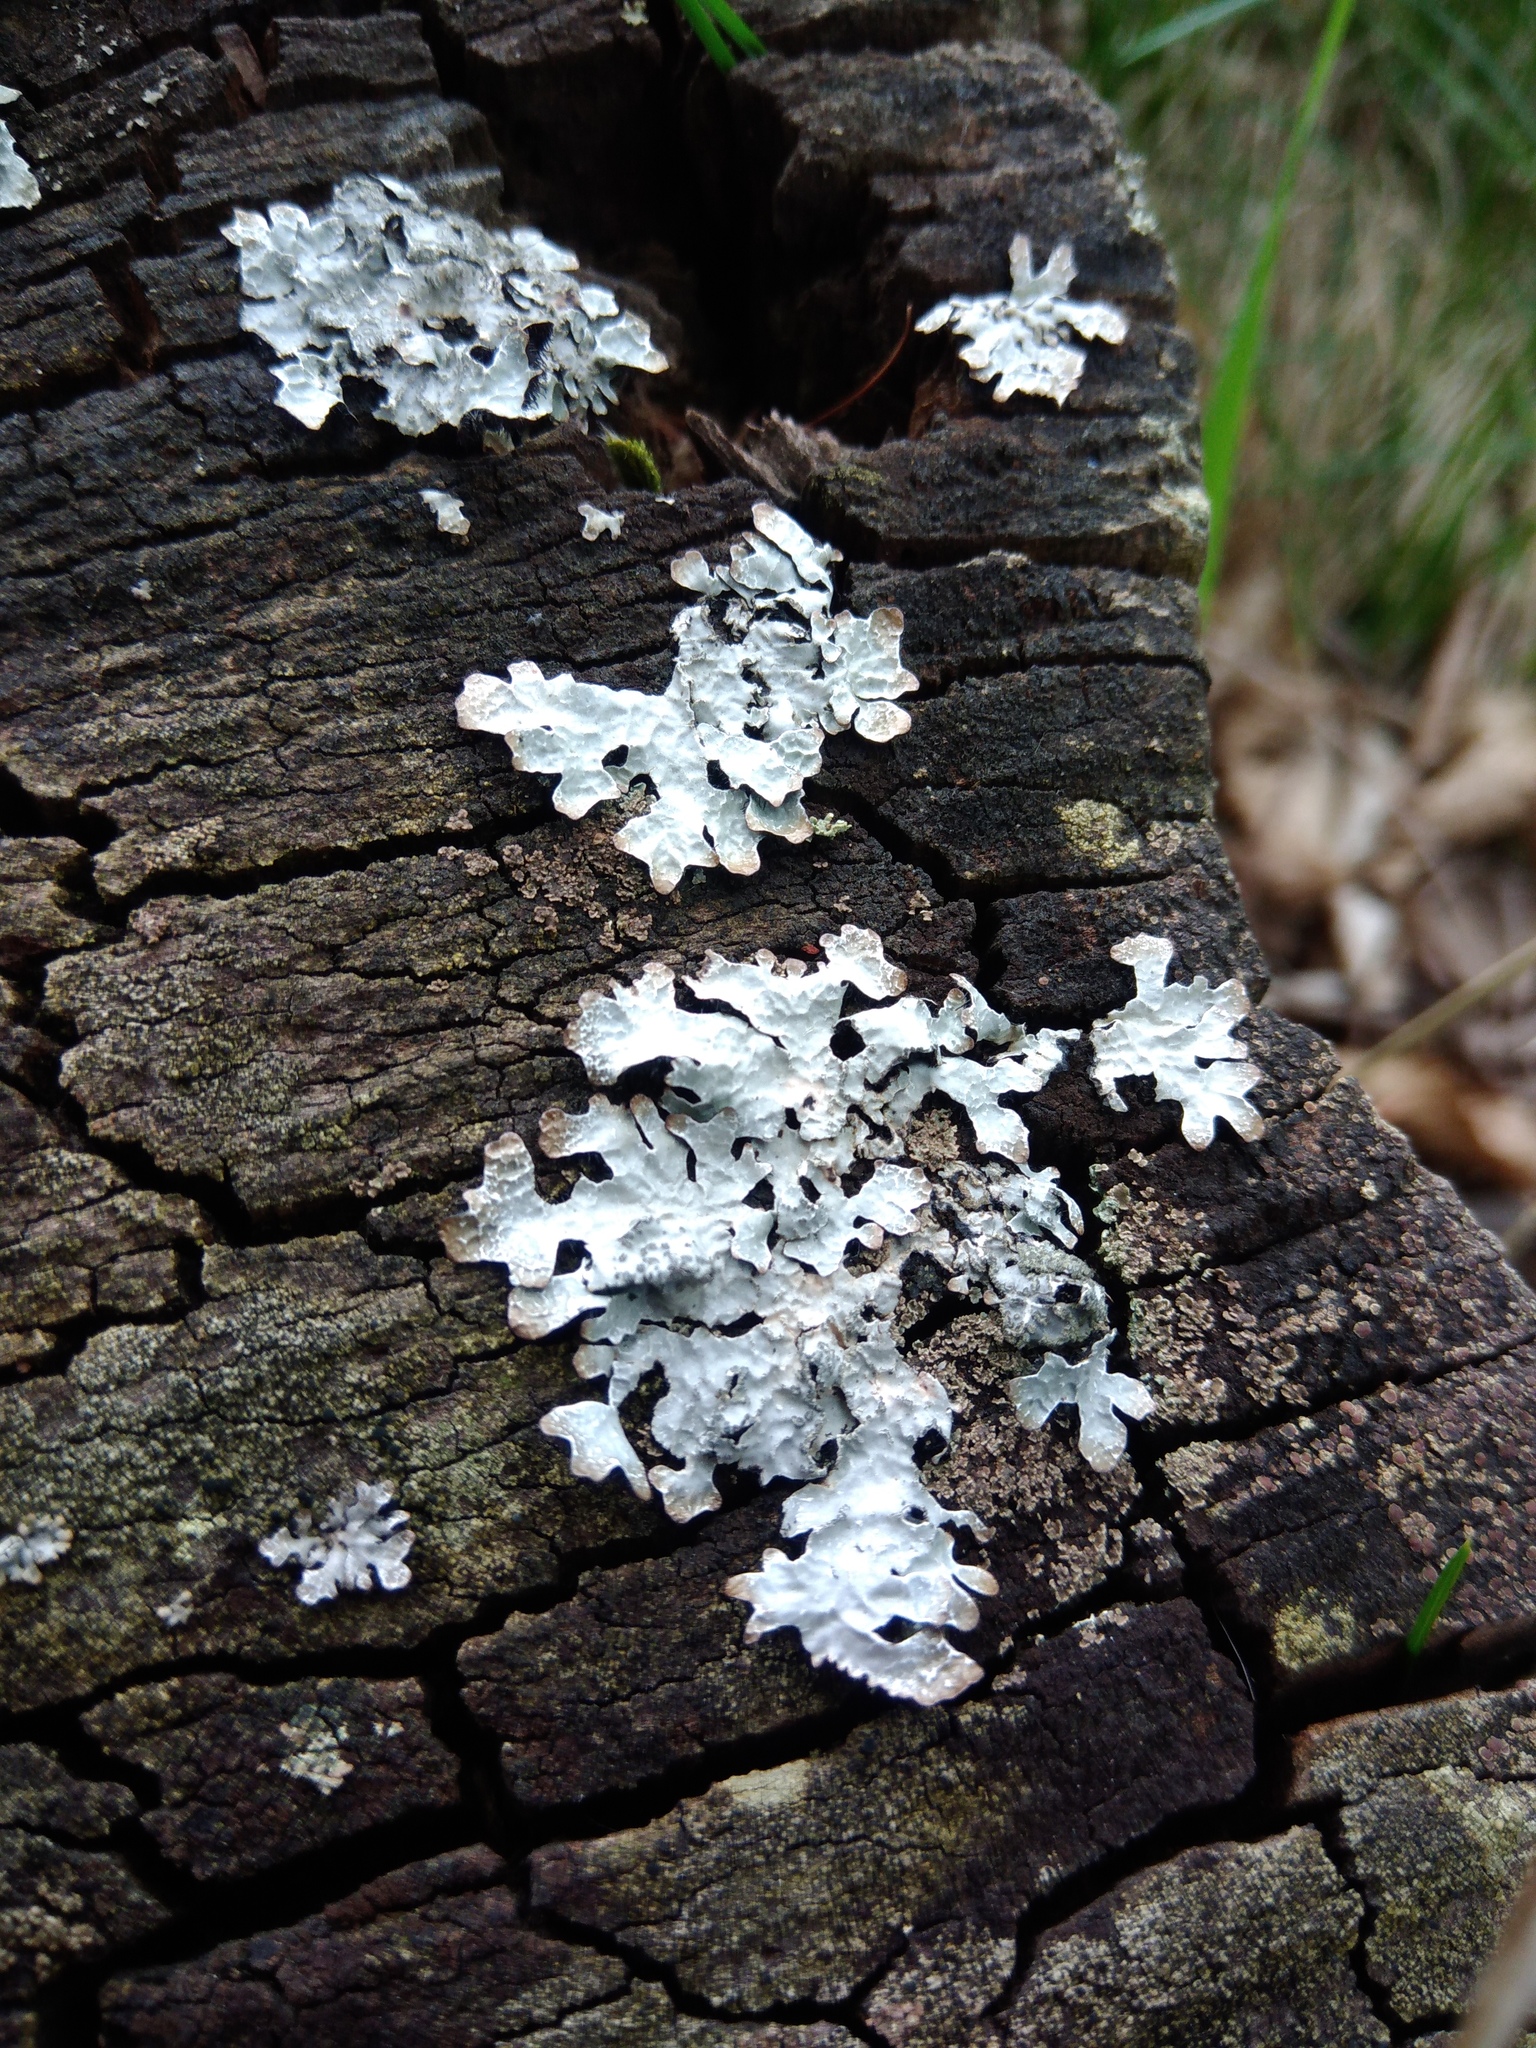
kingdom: Fungi
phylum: Ascomycota
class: Lecanoromycetes
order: Lecanorales
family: Parmeliaceae
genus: Parmelia
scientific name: Parmelia sulcata
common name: Netted shield lichen
